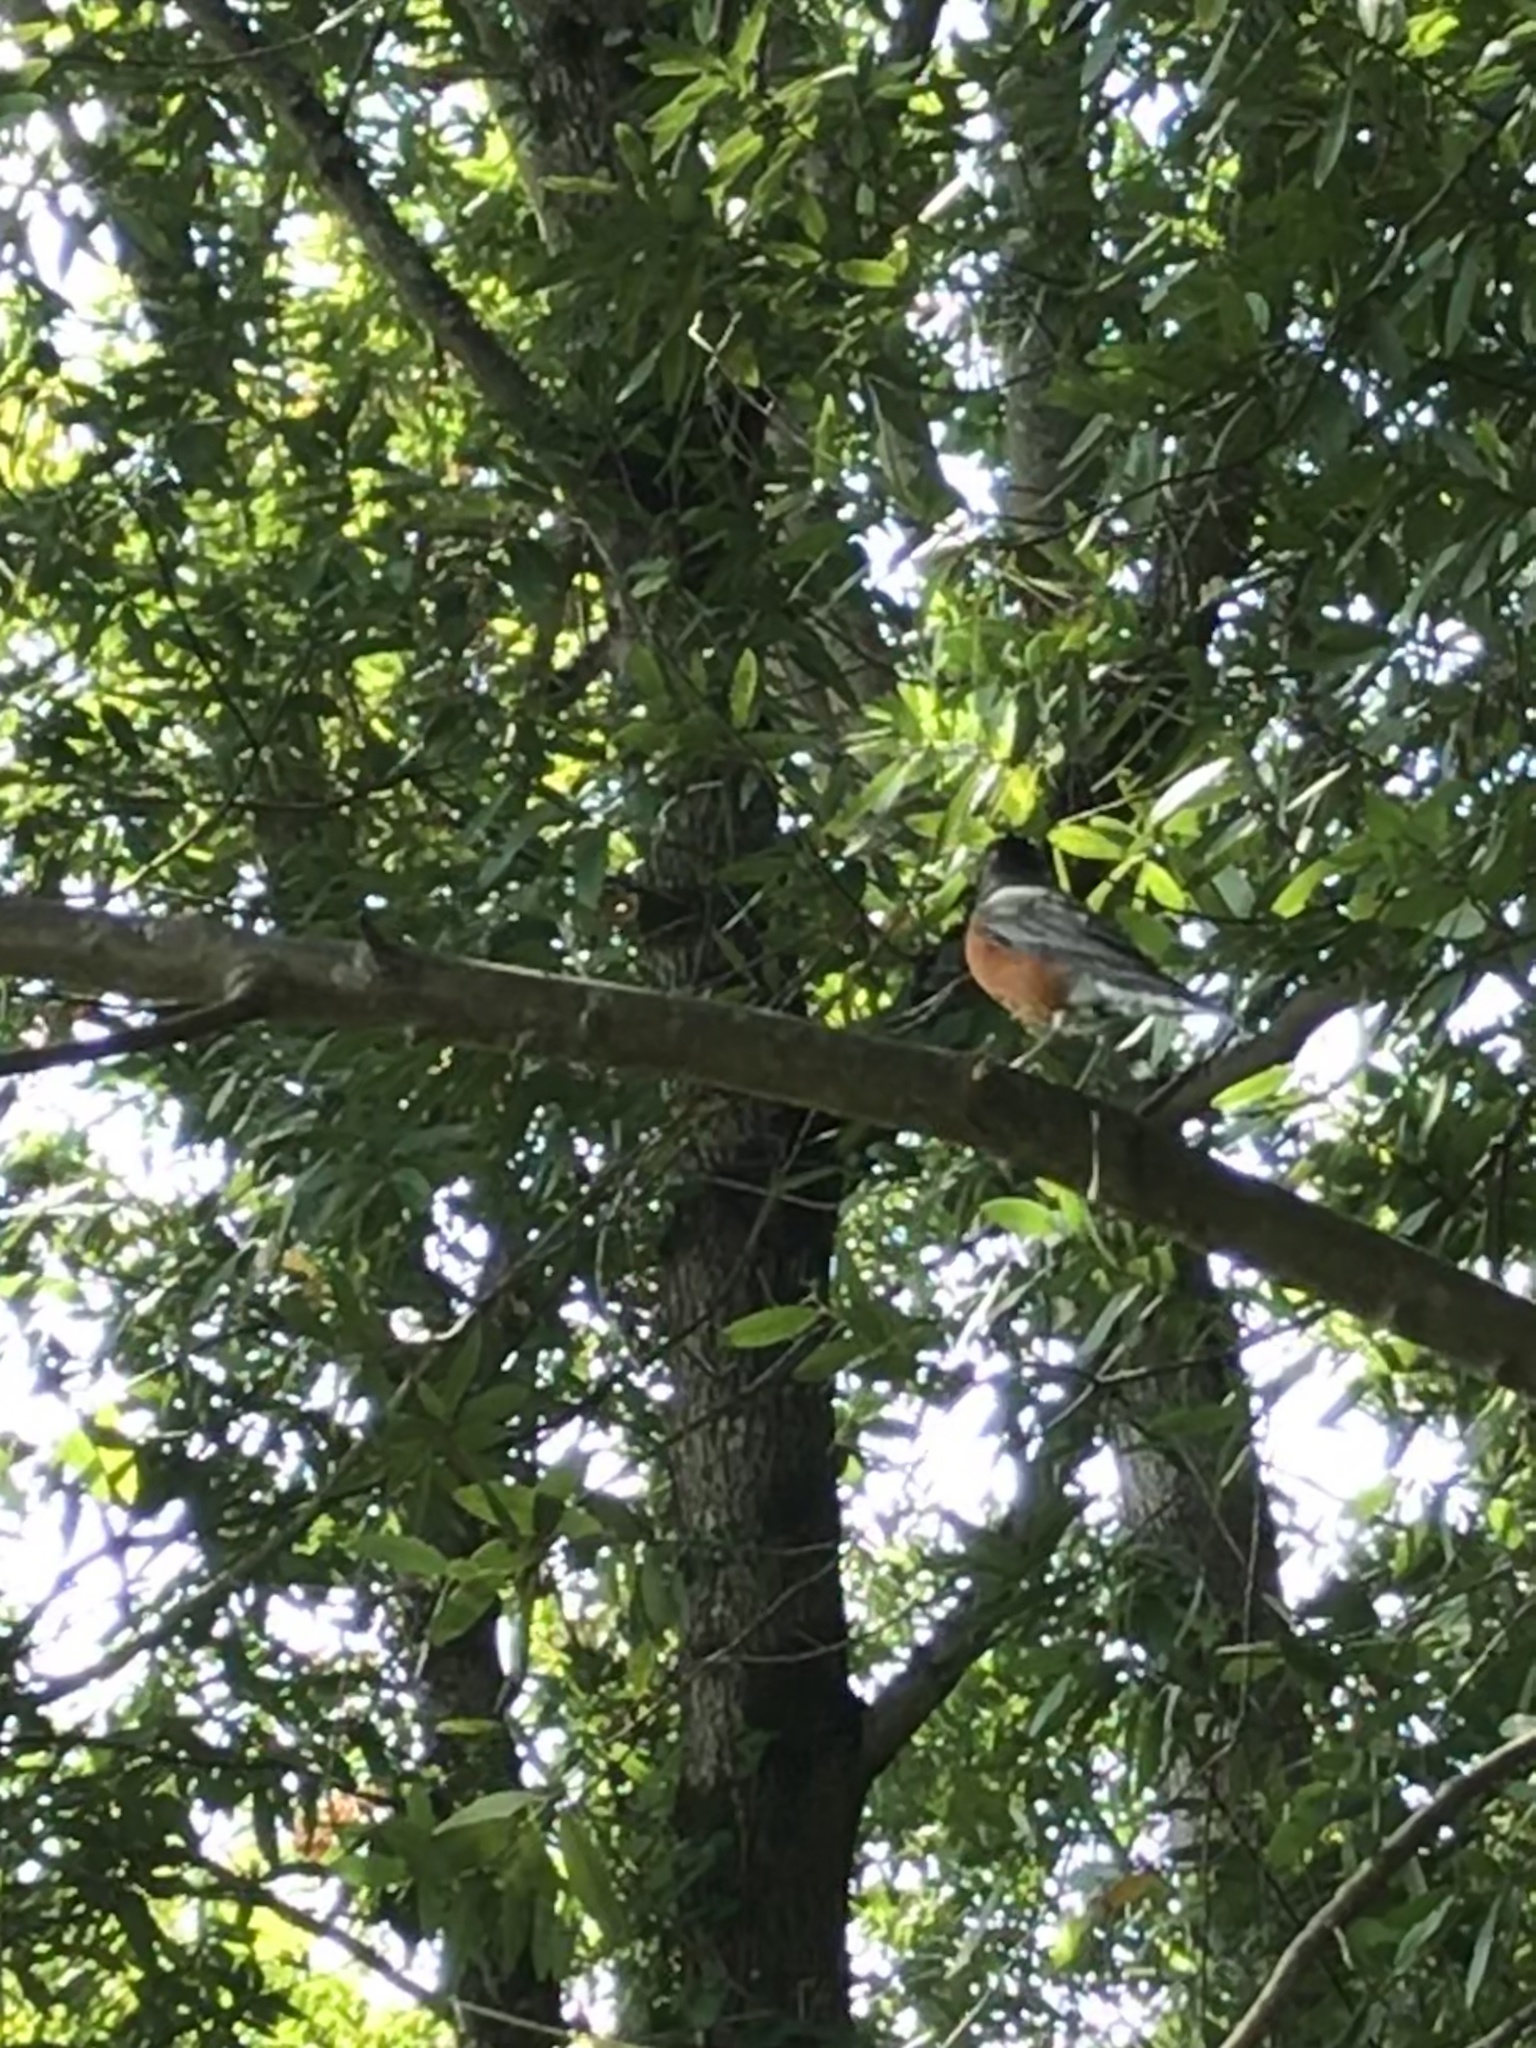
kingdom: Animalia
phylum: Chordata
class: Aves
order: Passeriformes
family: Turdidae
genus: Turdus
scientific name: Turdus migratorius
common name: American robin
